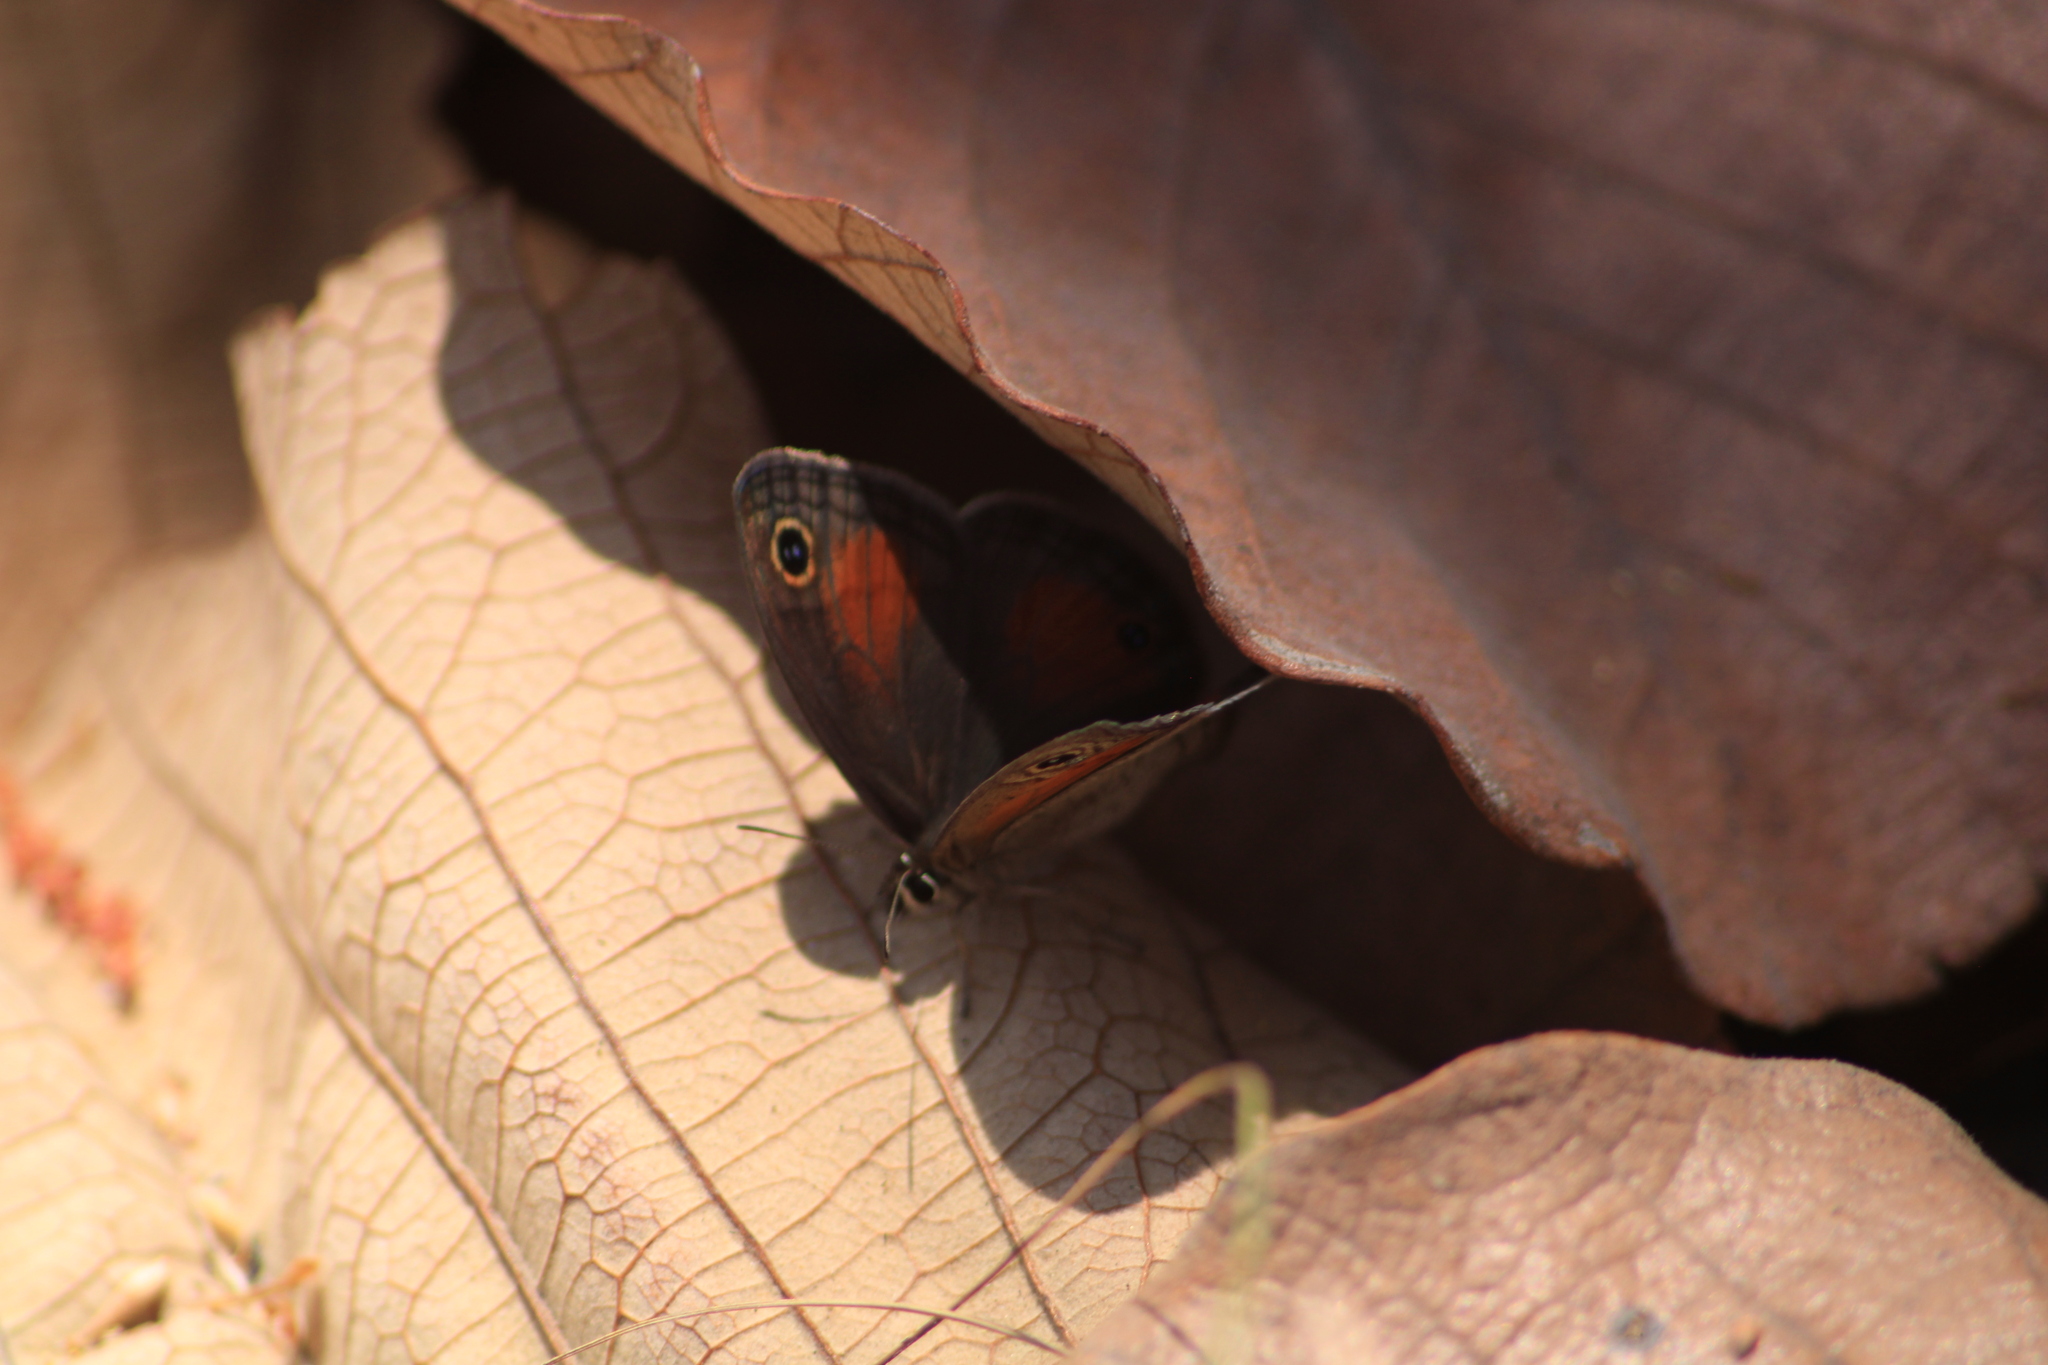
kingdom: Animalia
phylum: Arthropoda
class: Insecta
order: Lepidoptera
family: Nymphalidae
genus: Euptychia
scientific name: Euptychia
